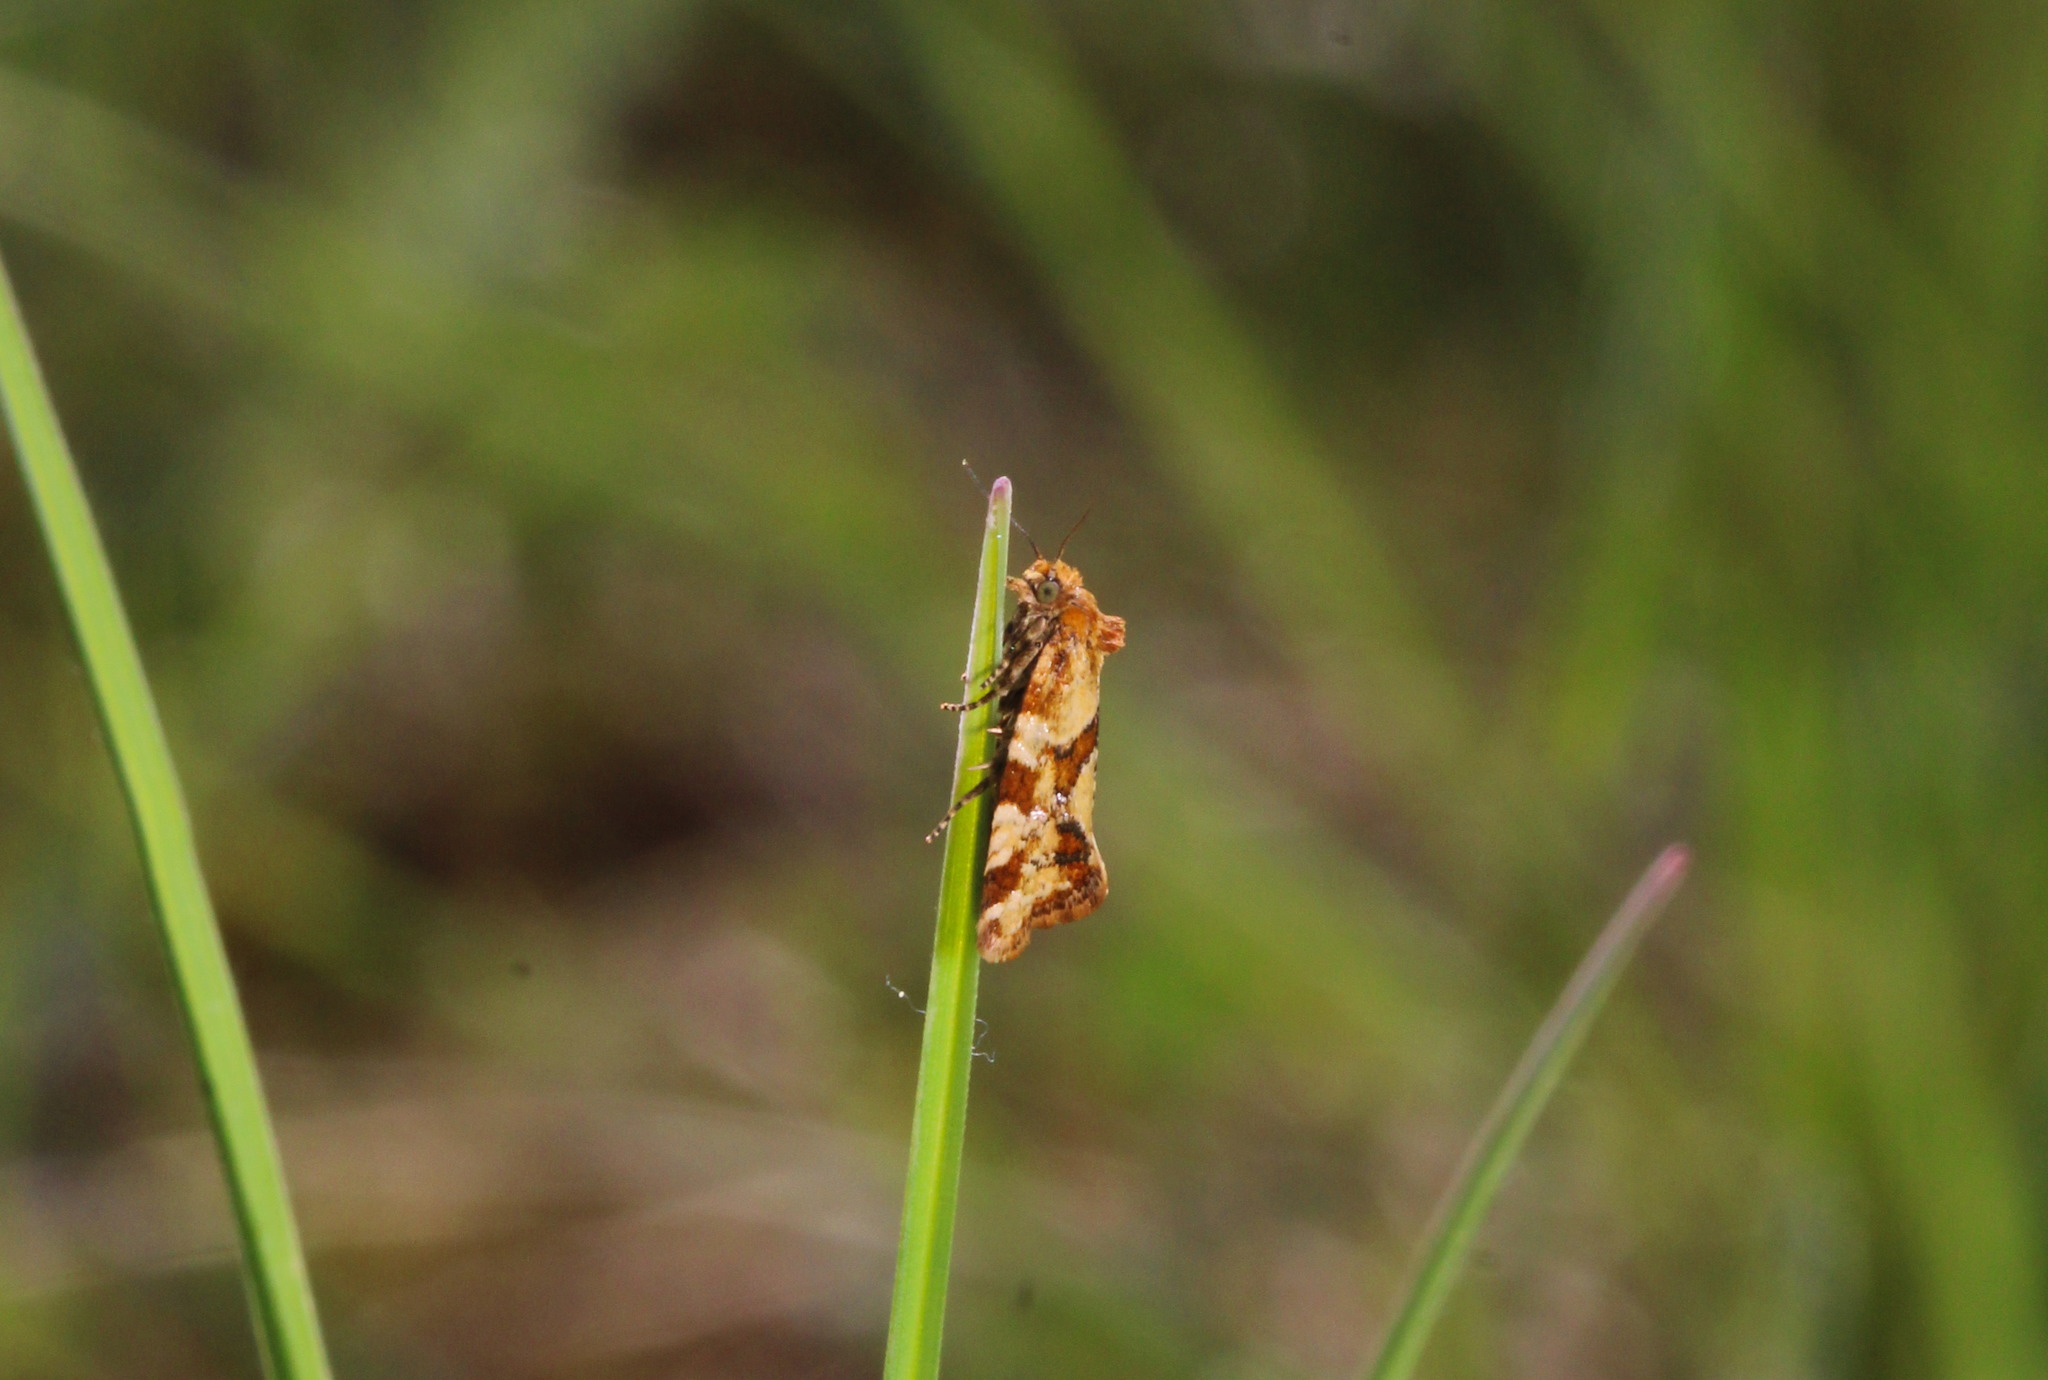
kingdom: Animalia
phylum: Arthropoda
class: Insecta
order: Lepidoptera
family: Tortricidae
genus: Aethes
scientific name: Aethes hartmanniana
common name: Scabious conch
